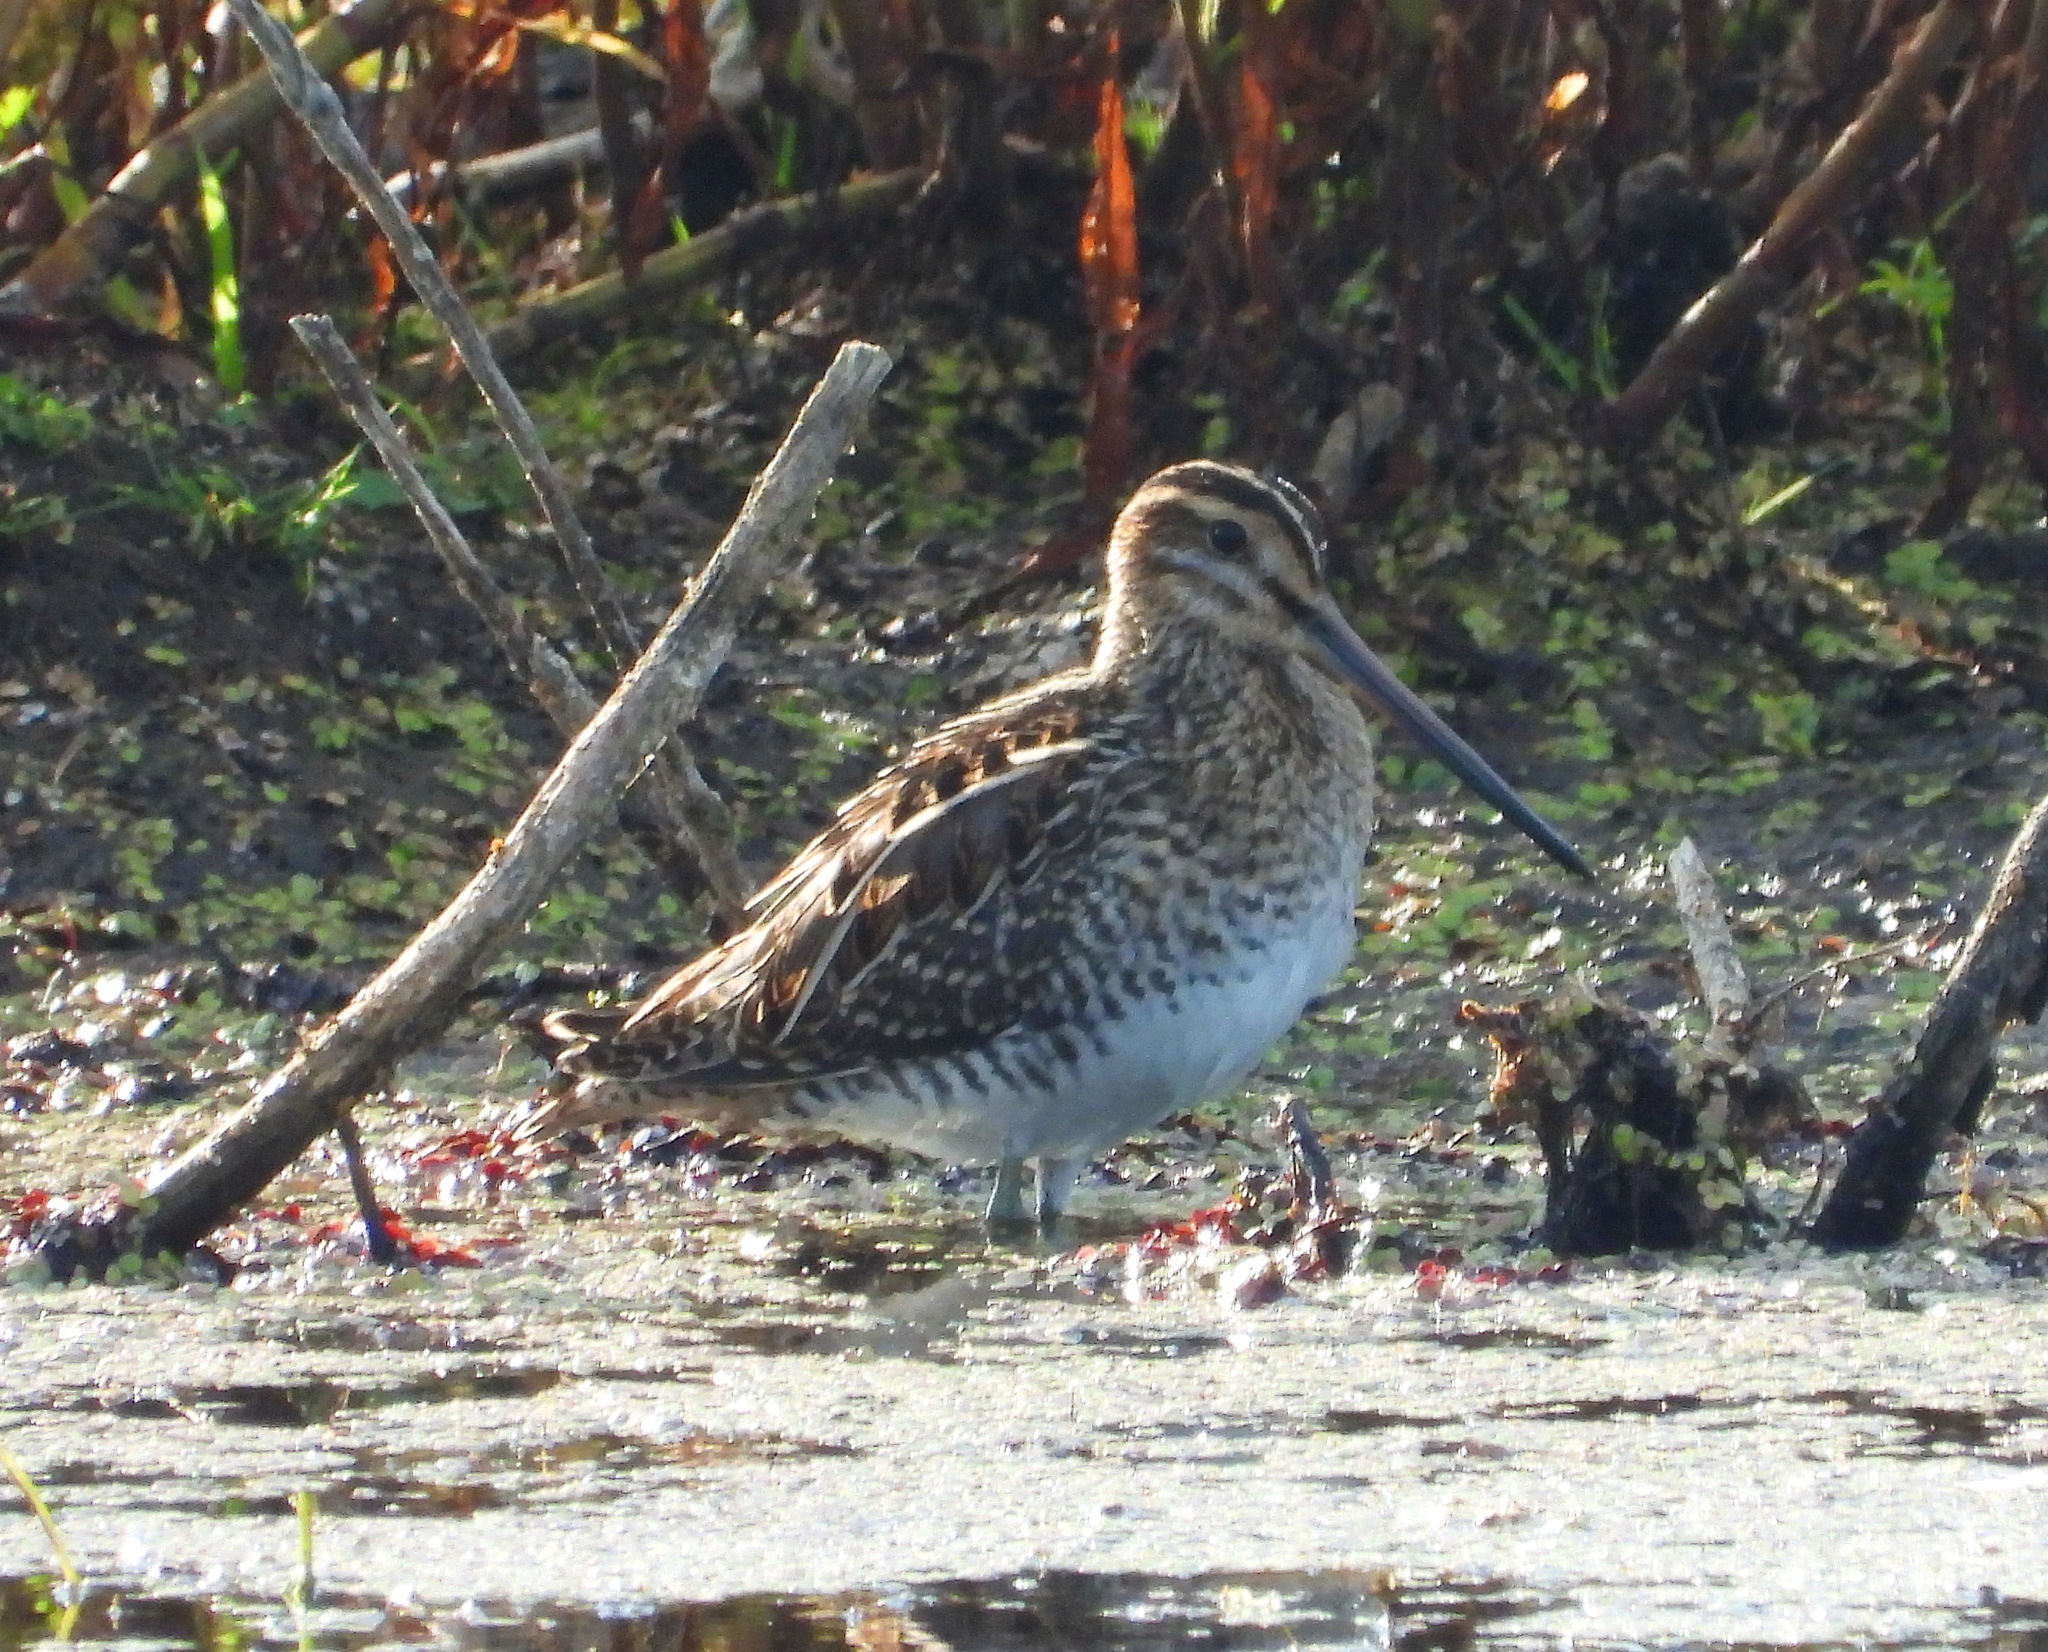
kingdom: Animalia
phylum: Chordata
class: Aves
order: Charadriiformes
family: Scolopacidae
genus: Gallinago
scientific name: Gallinago gallinago
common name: Common snipe
